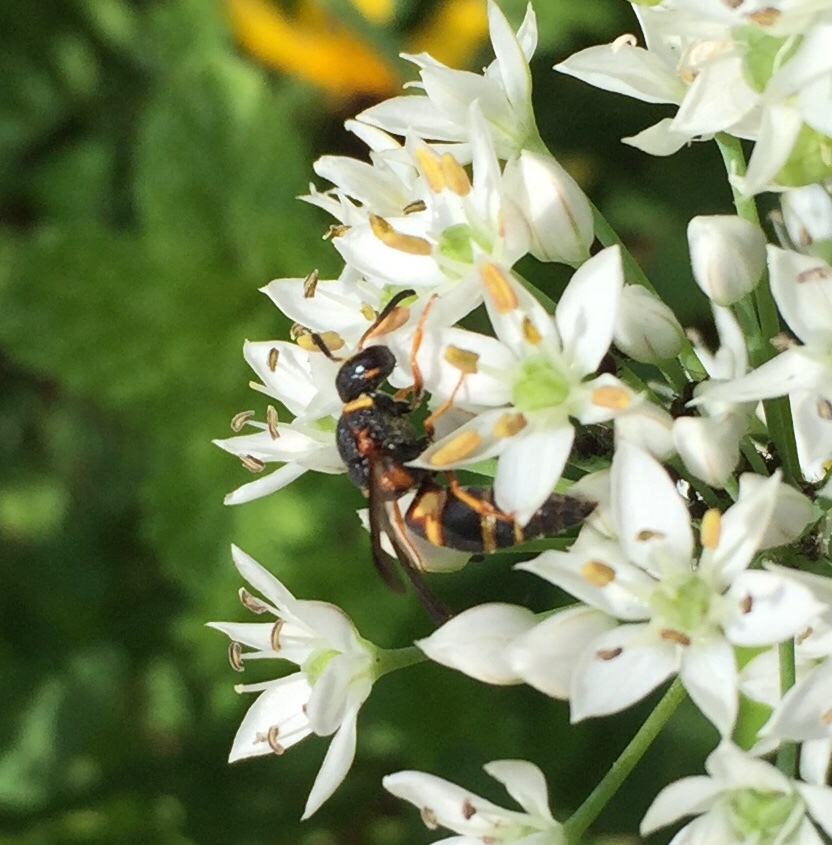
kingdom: Animalia
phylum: Arthropoda
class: Insecta
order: Hymenoptera
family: Eumenidae
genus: Euodynerus
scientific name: Euodynerus hidalgo
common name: Wasp
